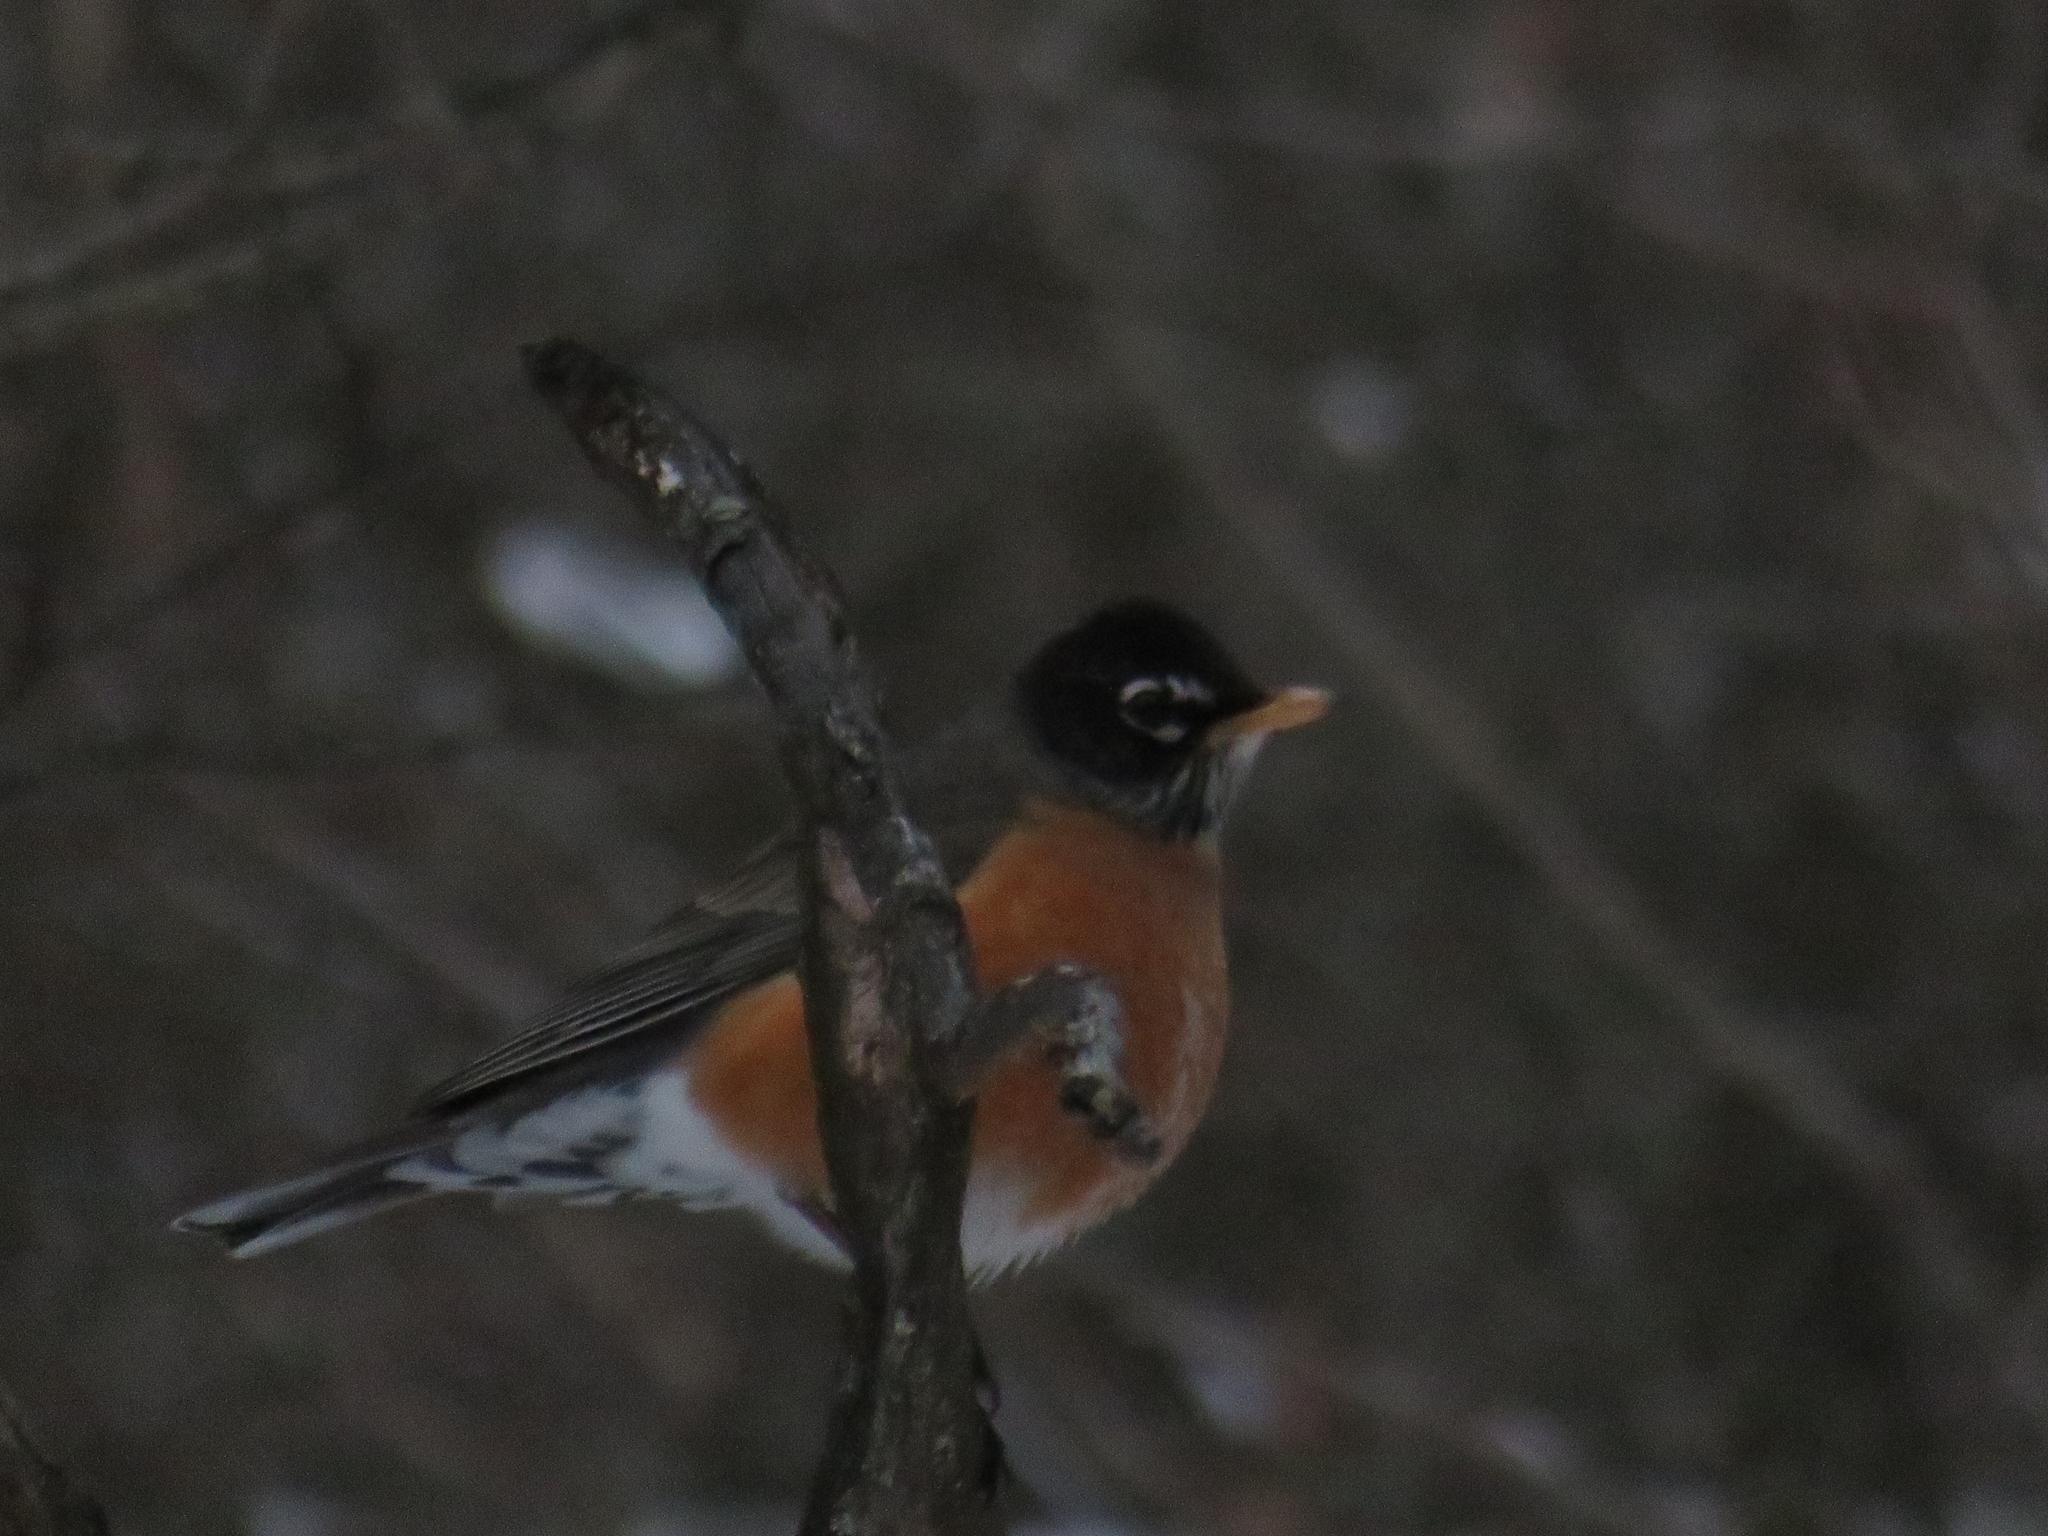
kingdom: Animalia
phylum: Chordata
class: Aves
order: Passeriformes
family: Turdidae
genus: Turdus
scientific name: Turdus migratorius
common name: American robin
